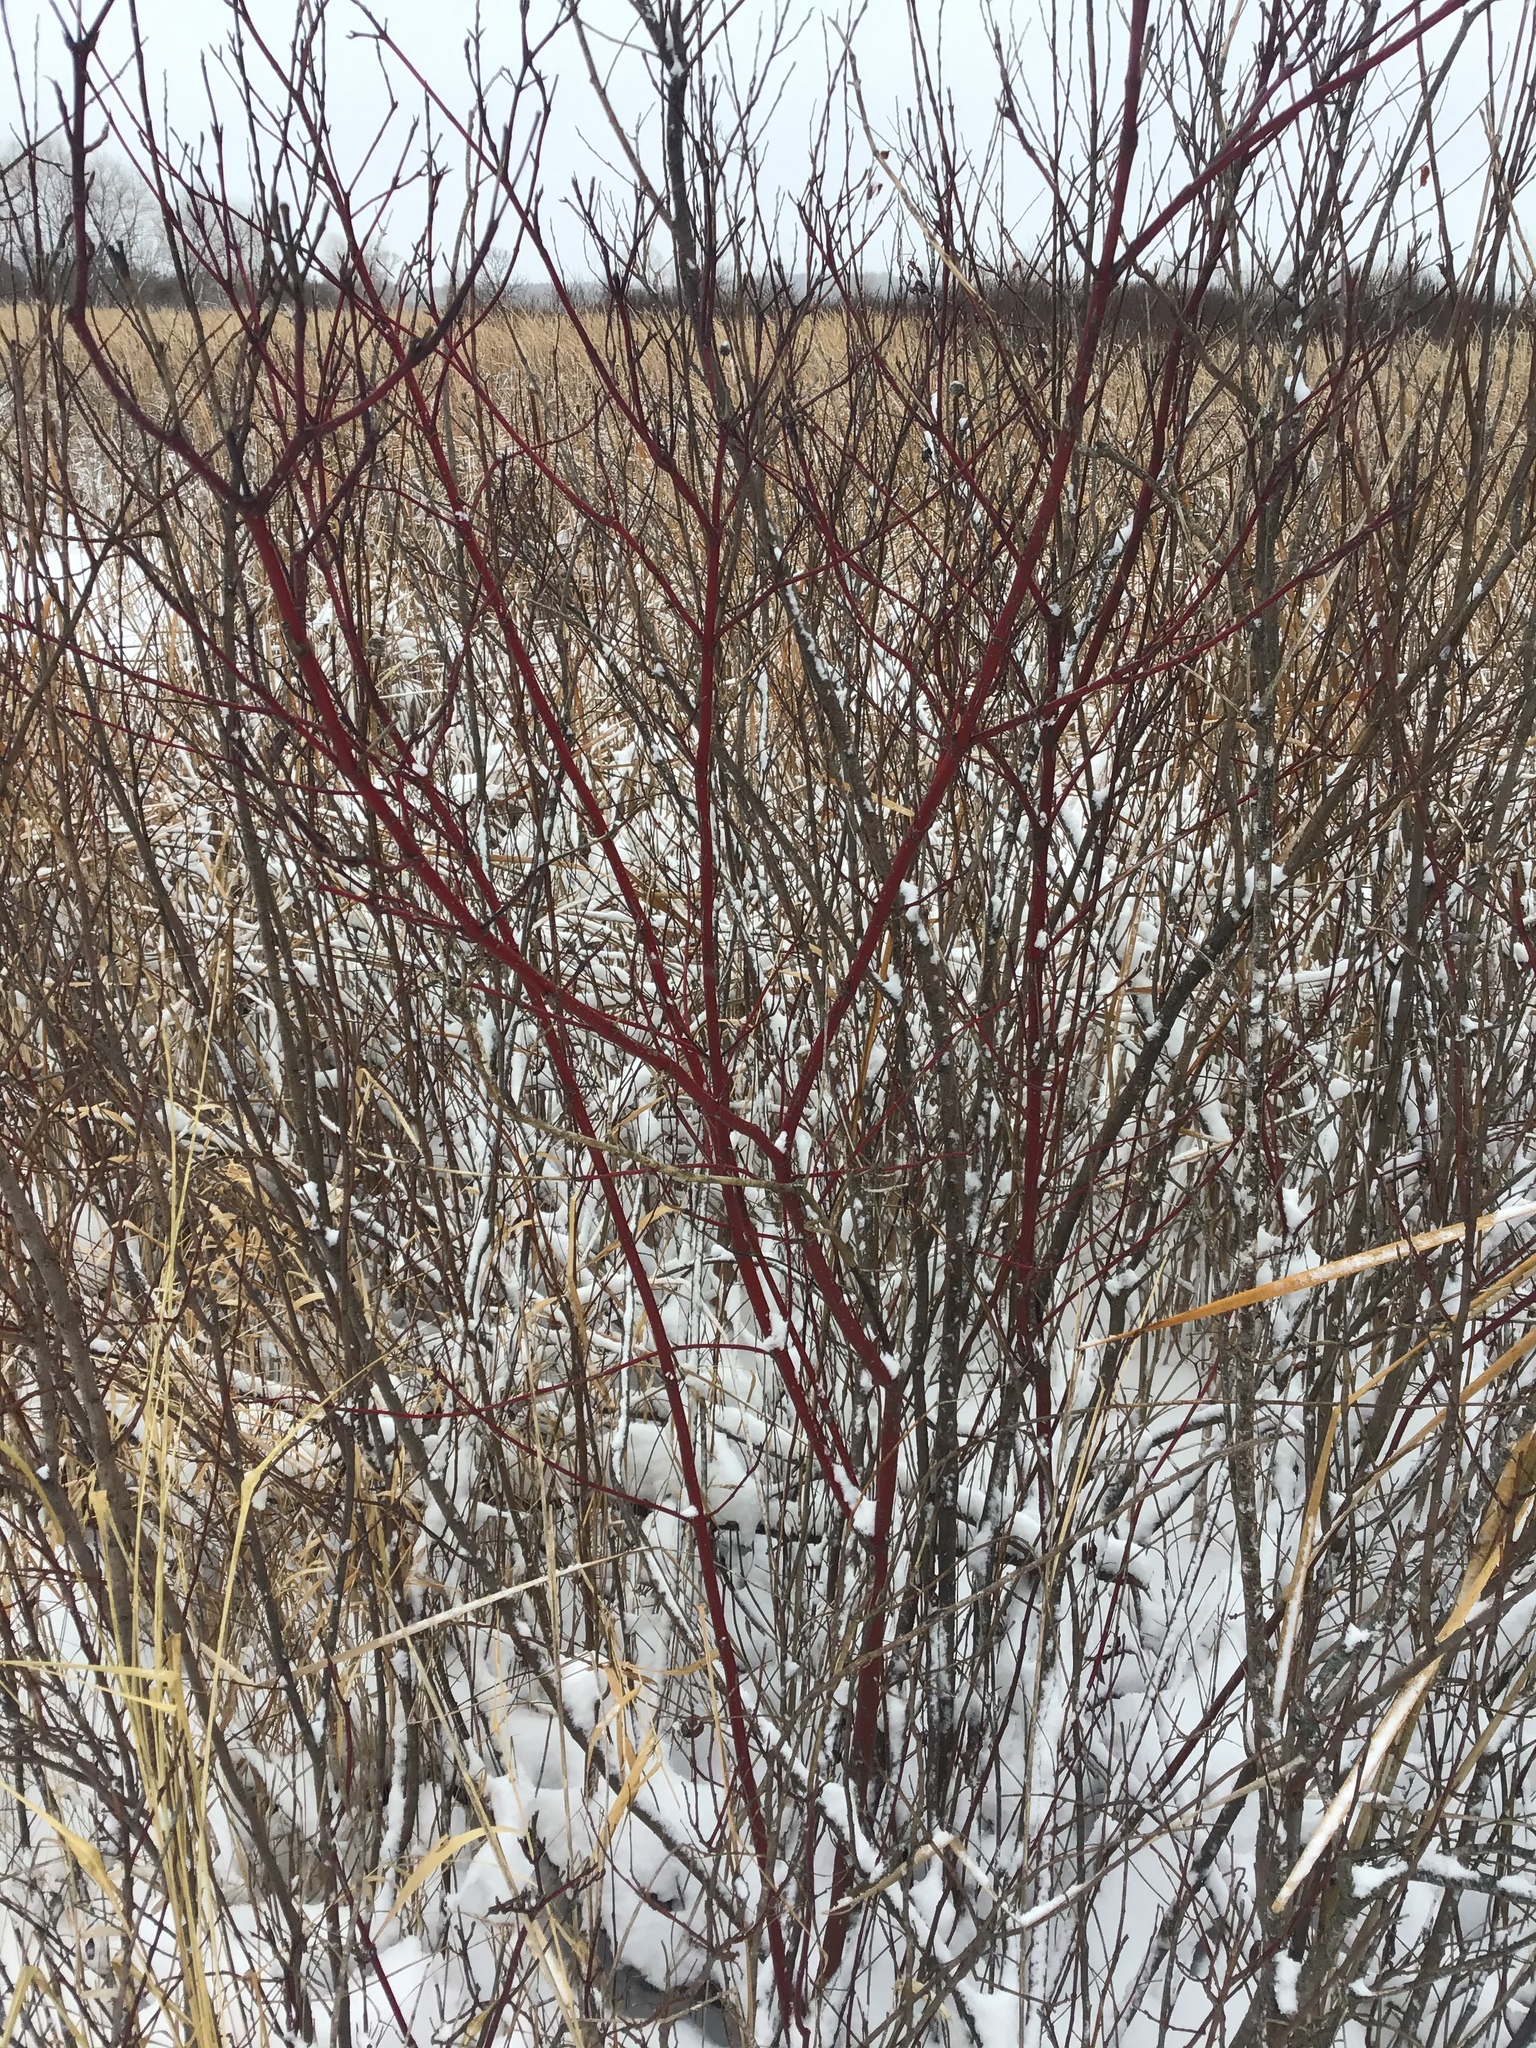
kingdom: Plantae
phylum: Tracheophyta
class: Magnoliopsida
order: Cornales
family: Cornaceae
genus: Cornus
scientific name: Cornus sericea
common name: Red-osier dogwood
